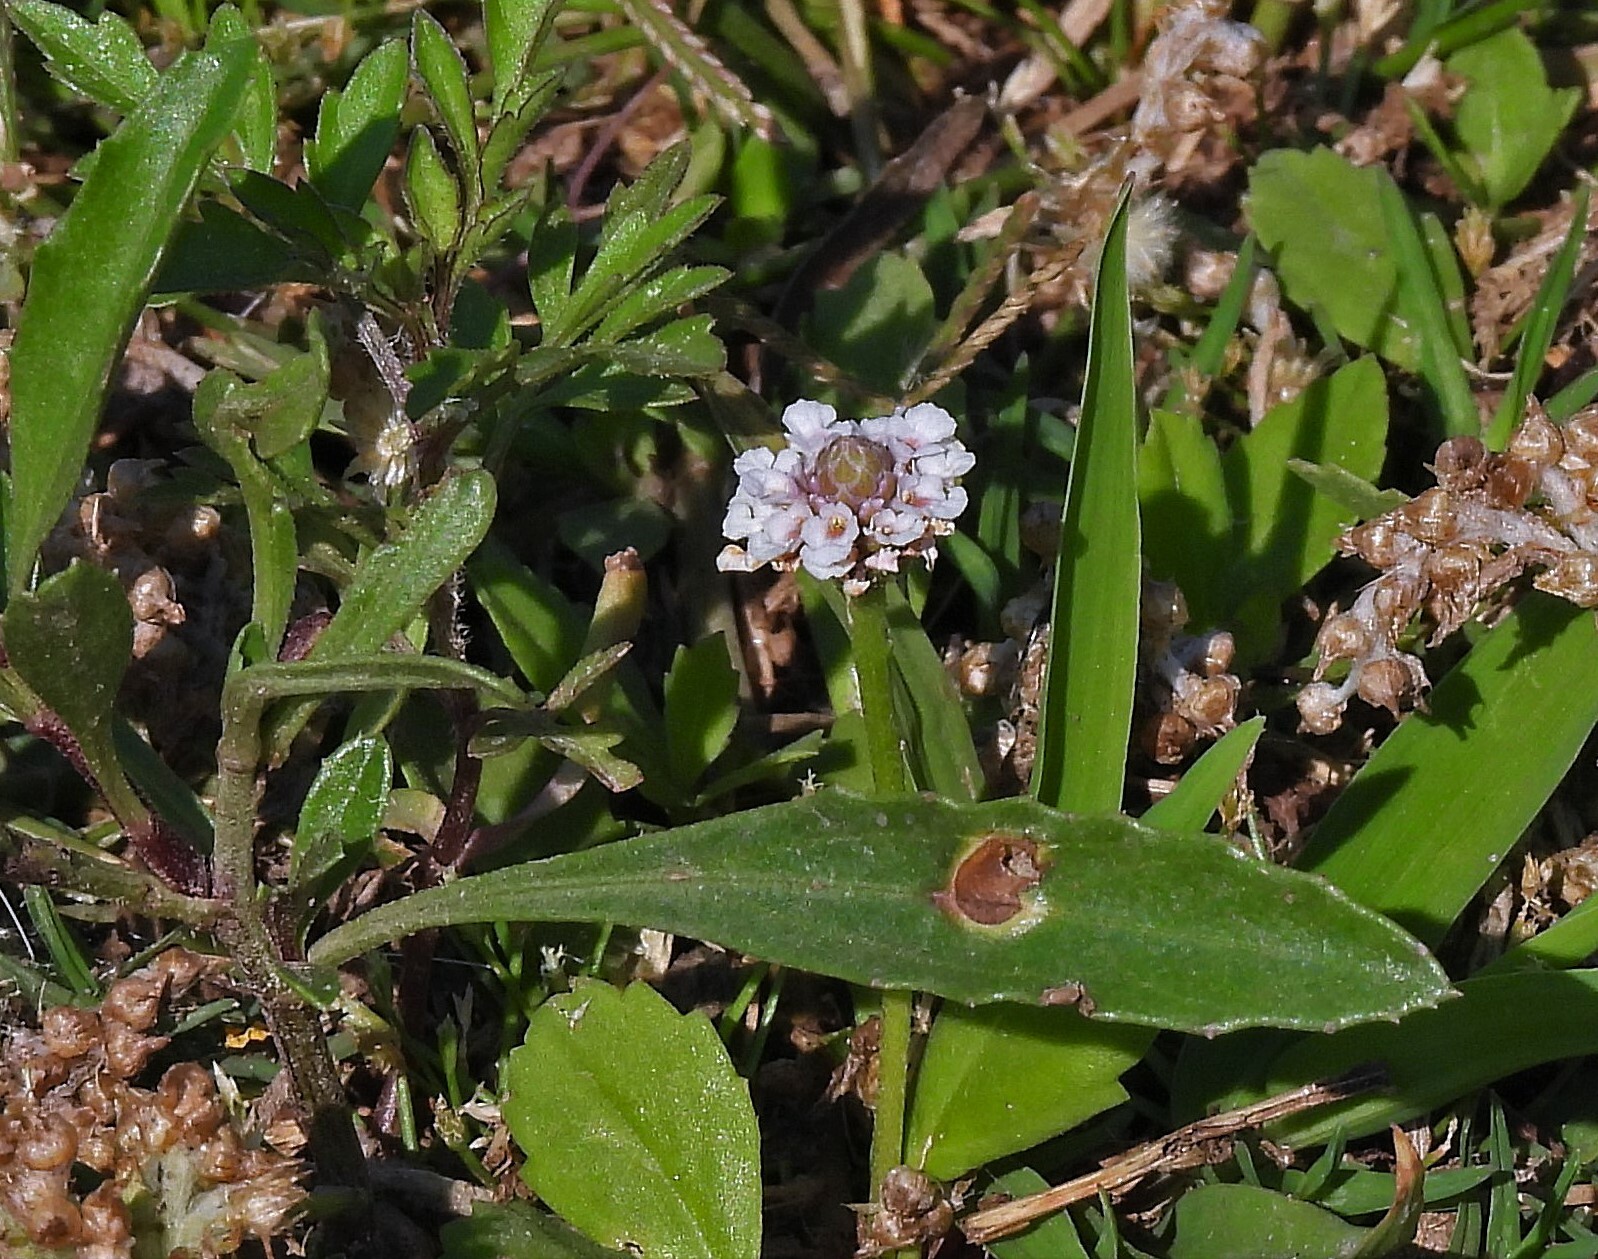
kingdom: Plantae
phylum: Tracheophyta
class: Magnoliopsida
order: Lamiales
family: Verbenaceae
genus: Phyla
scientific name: Phyla nodiflora
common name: Frogfruit
